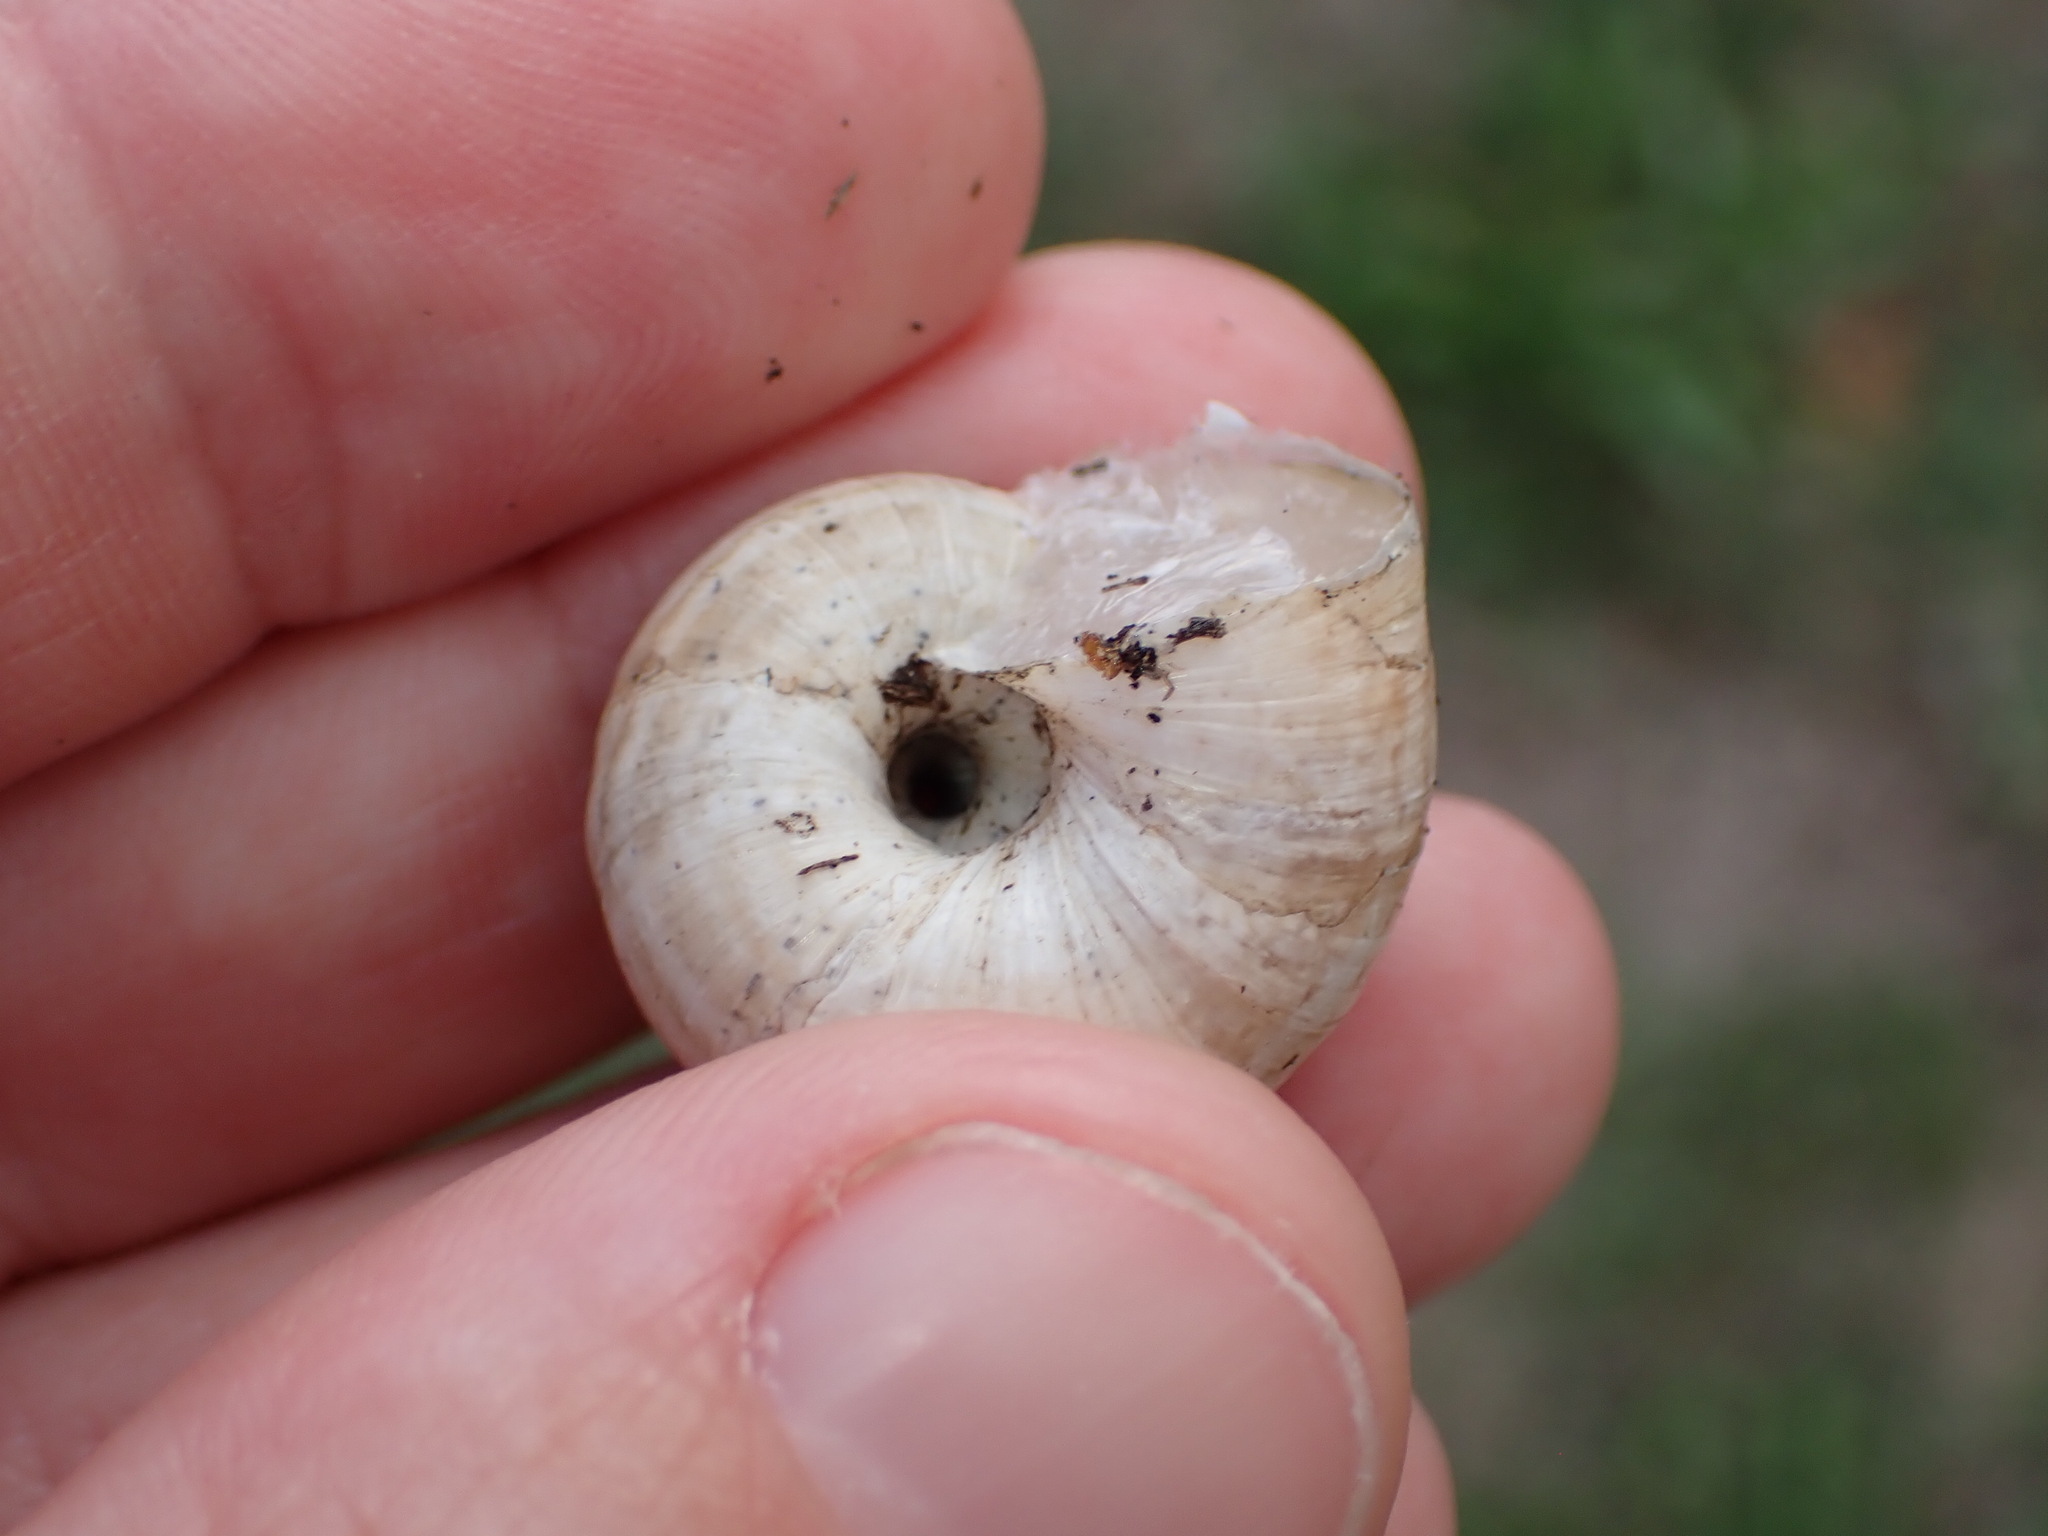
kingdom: Animalia
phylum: Mollusca
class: Gastropoda
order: Stylommatophora
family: Geomitridae
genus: Xerosecta
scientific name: Xerosecta cespitum
